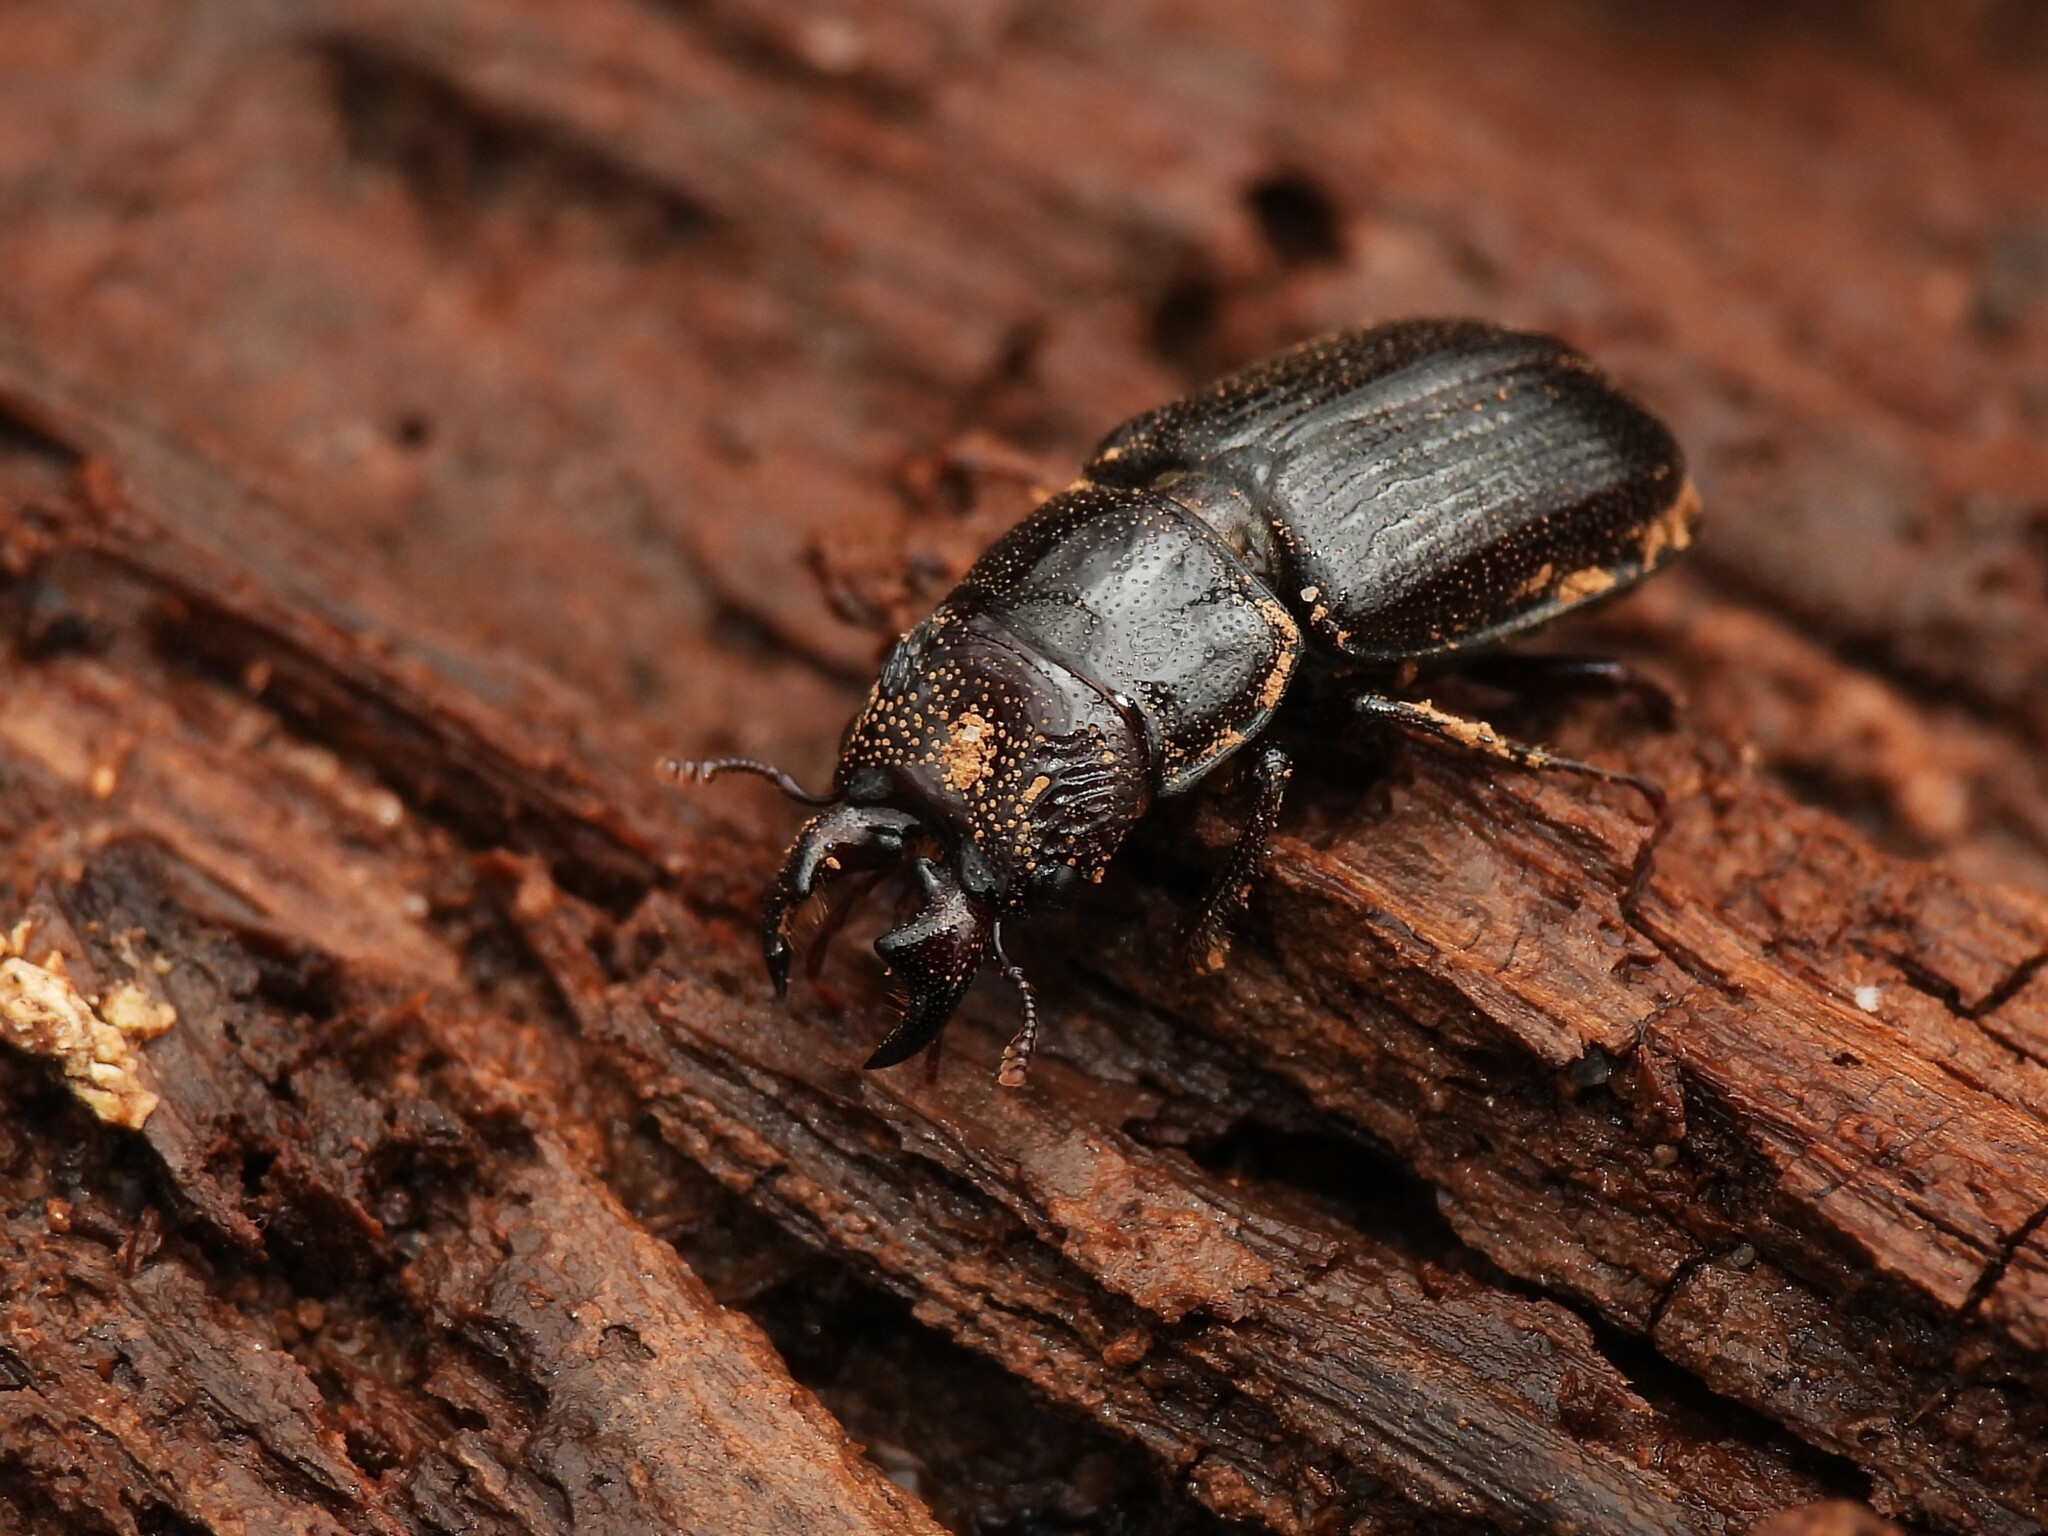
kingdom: Animalia
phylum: Arthropoda
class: Insecta
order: Coleoptera
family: Lucanidae
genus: Ceruchus
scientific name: Ceruchus piceus
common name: Red-rot decay stag beetle
